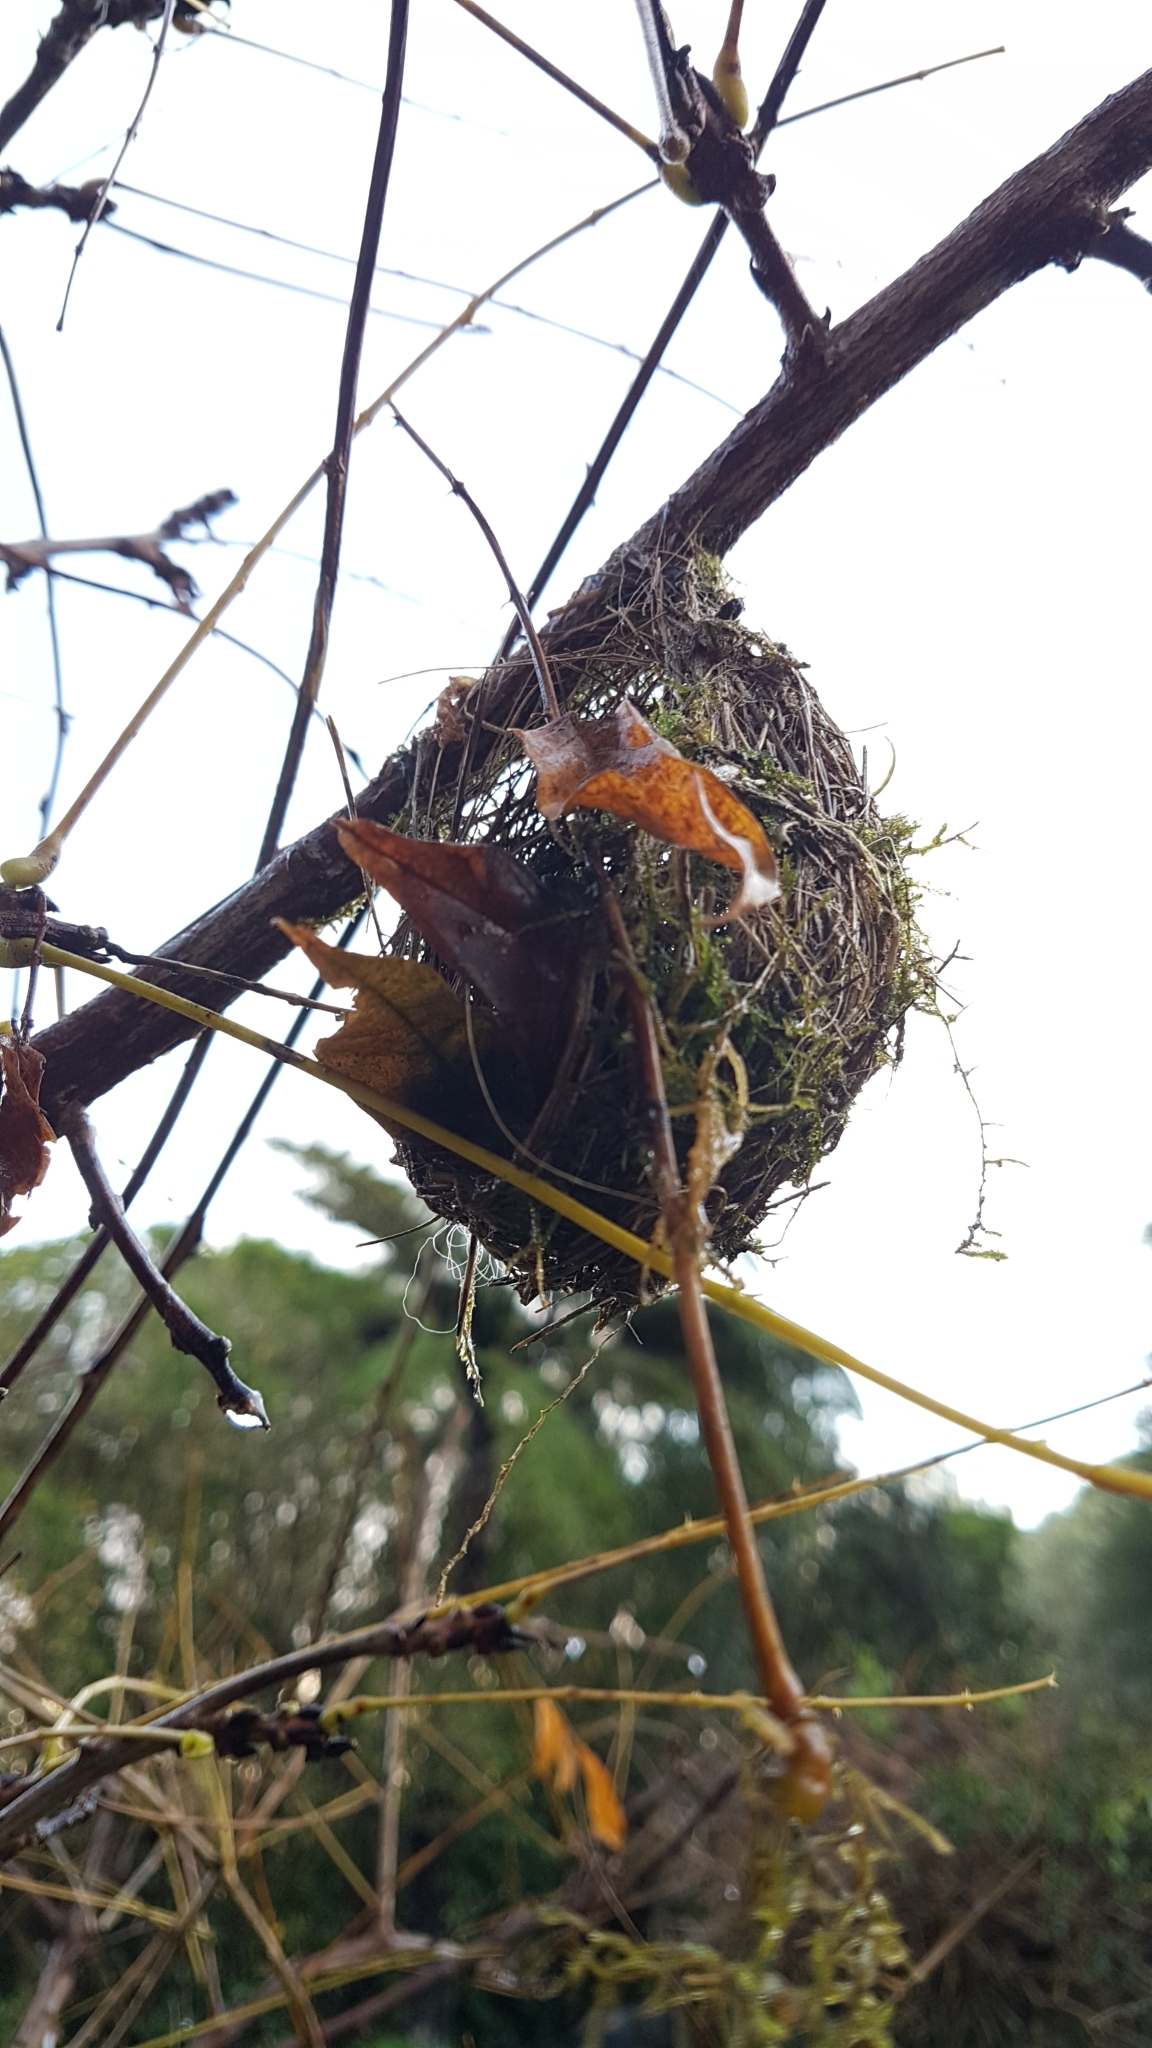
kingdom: Animalia
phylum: Chordata
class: Aves
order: Passeriformes
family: Acanthizidae
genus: Gerygone
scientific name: Gerygone igata
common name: Grey gerygone
